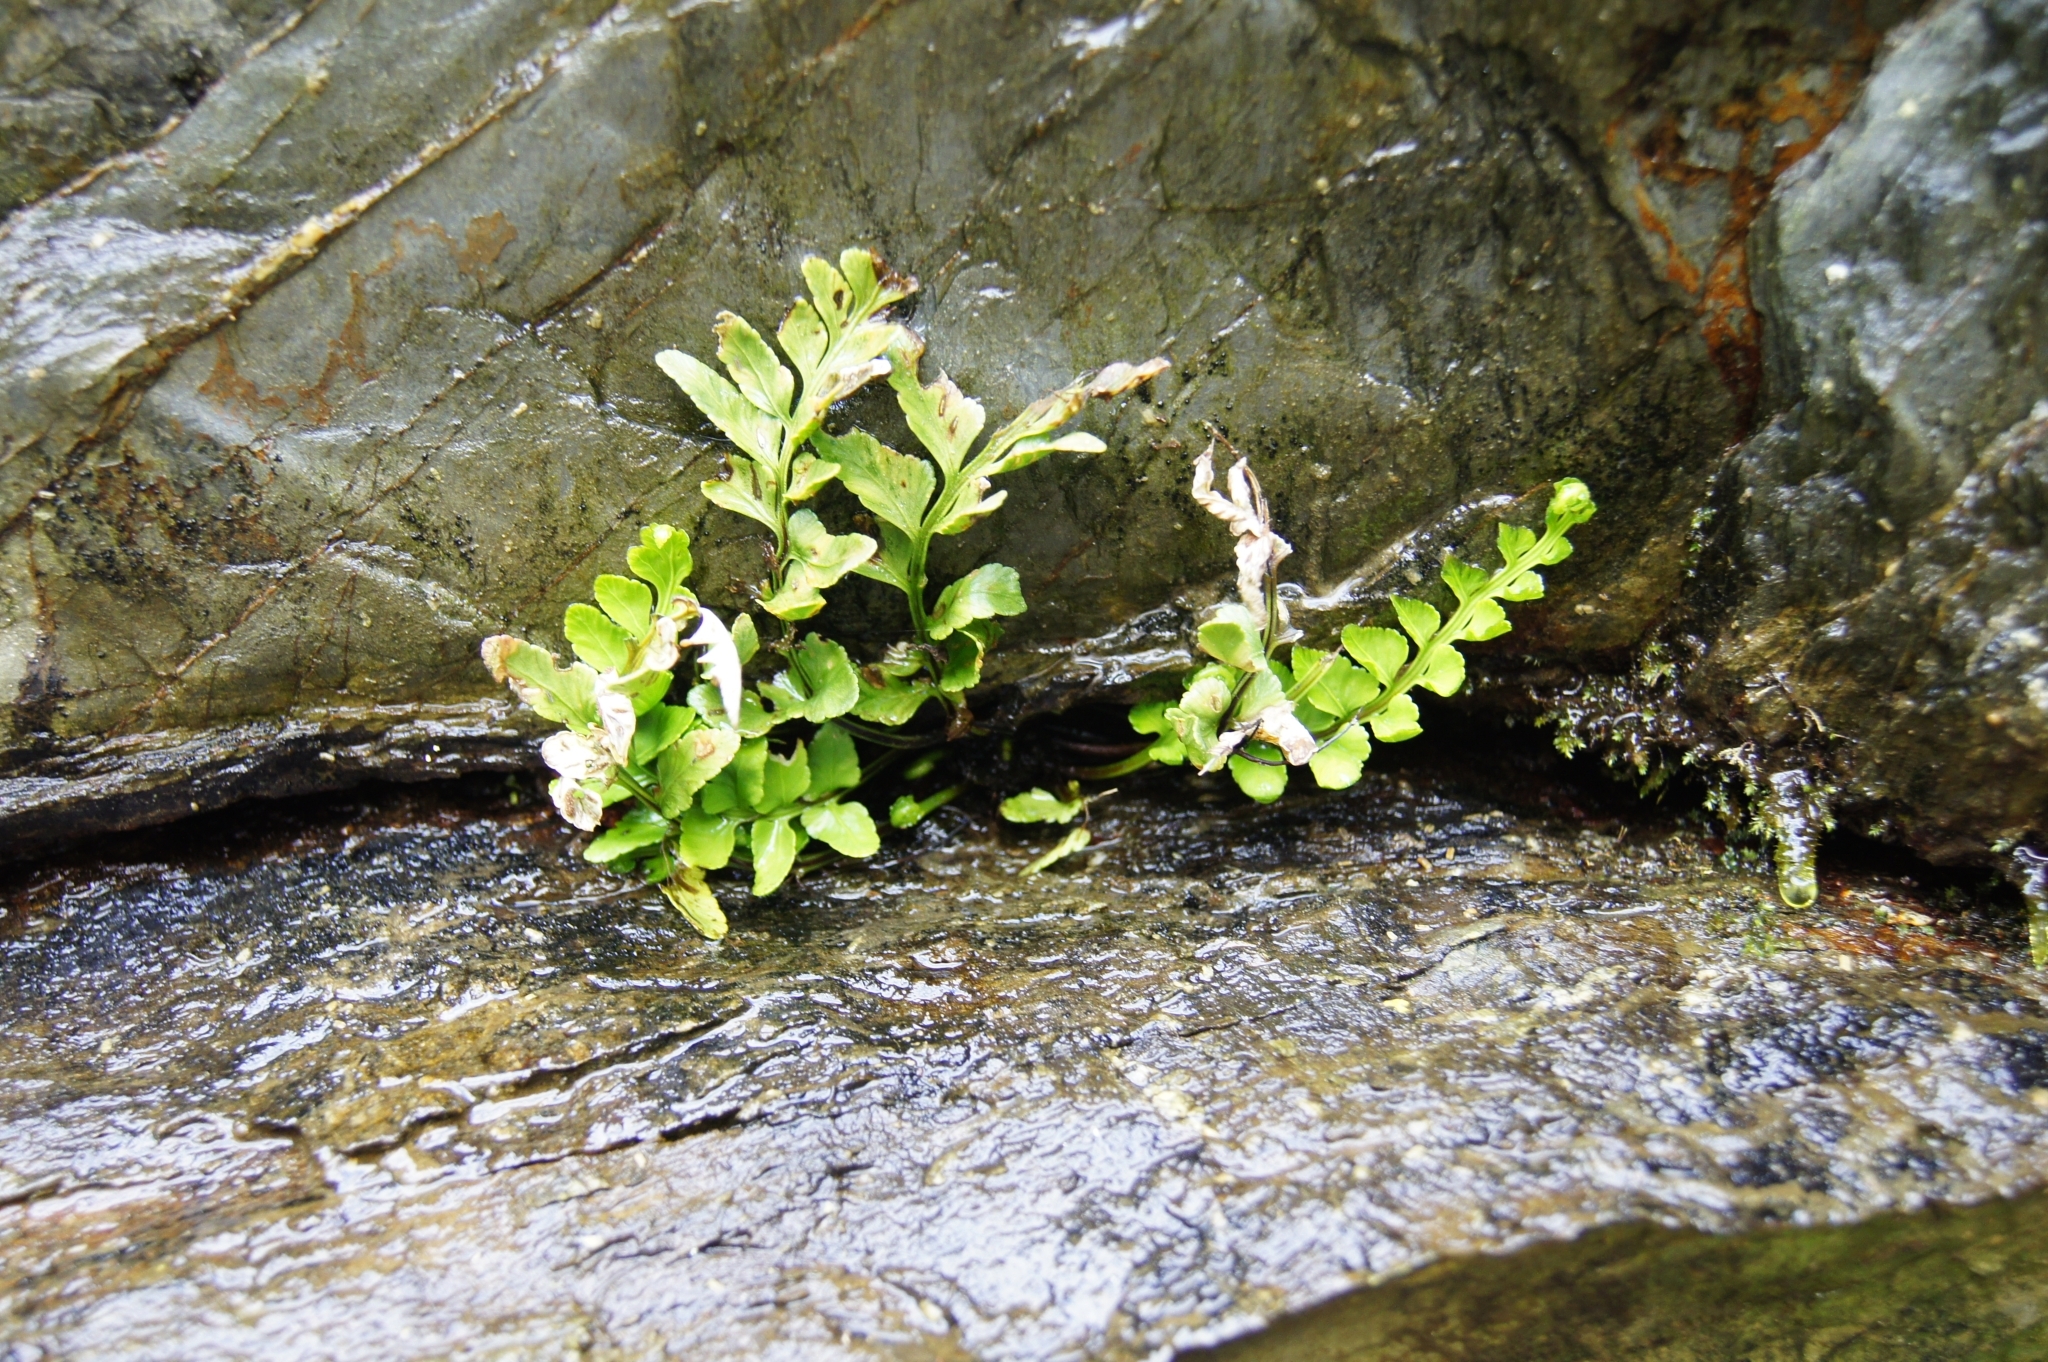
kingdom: Plantae
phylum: Tracheophyta
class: Polypodiopsida
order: Polypodiales
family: Aspleniaceae
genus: Asplenium
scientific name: Asplenium marinum
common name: Sea spleenwort
